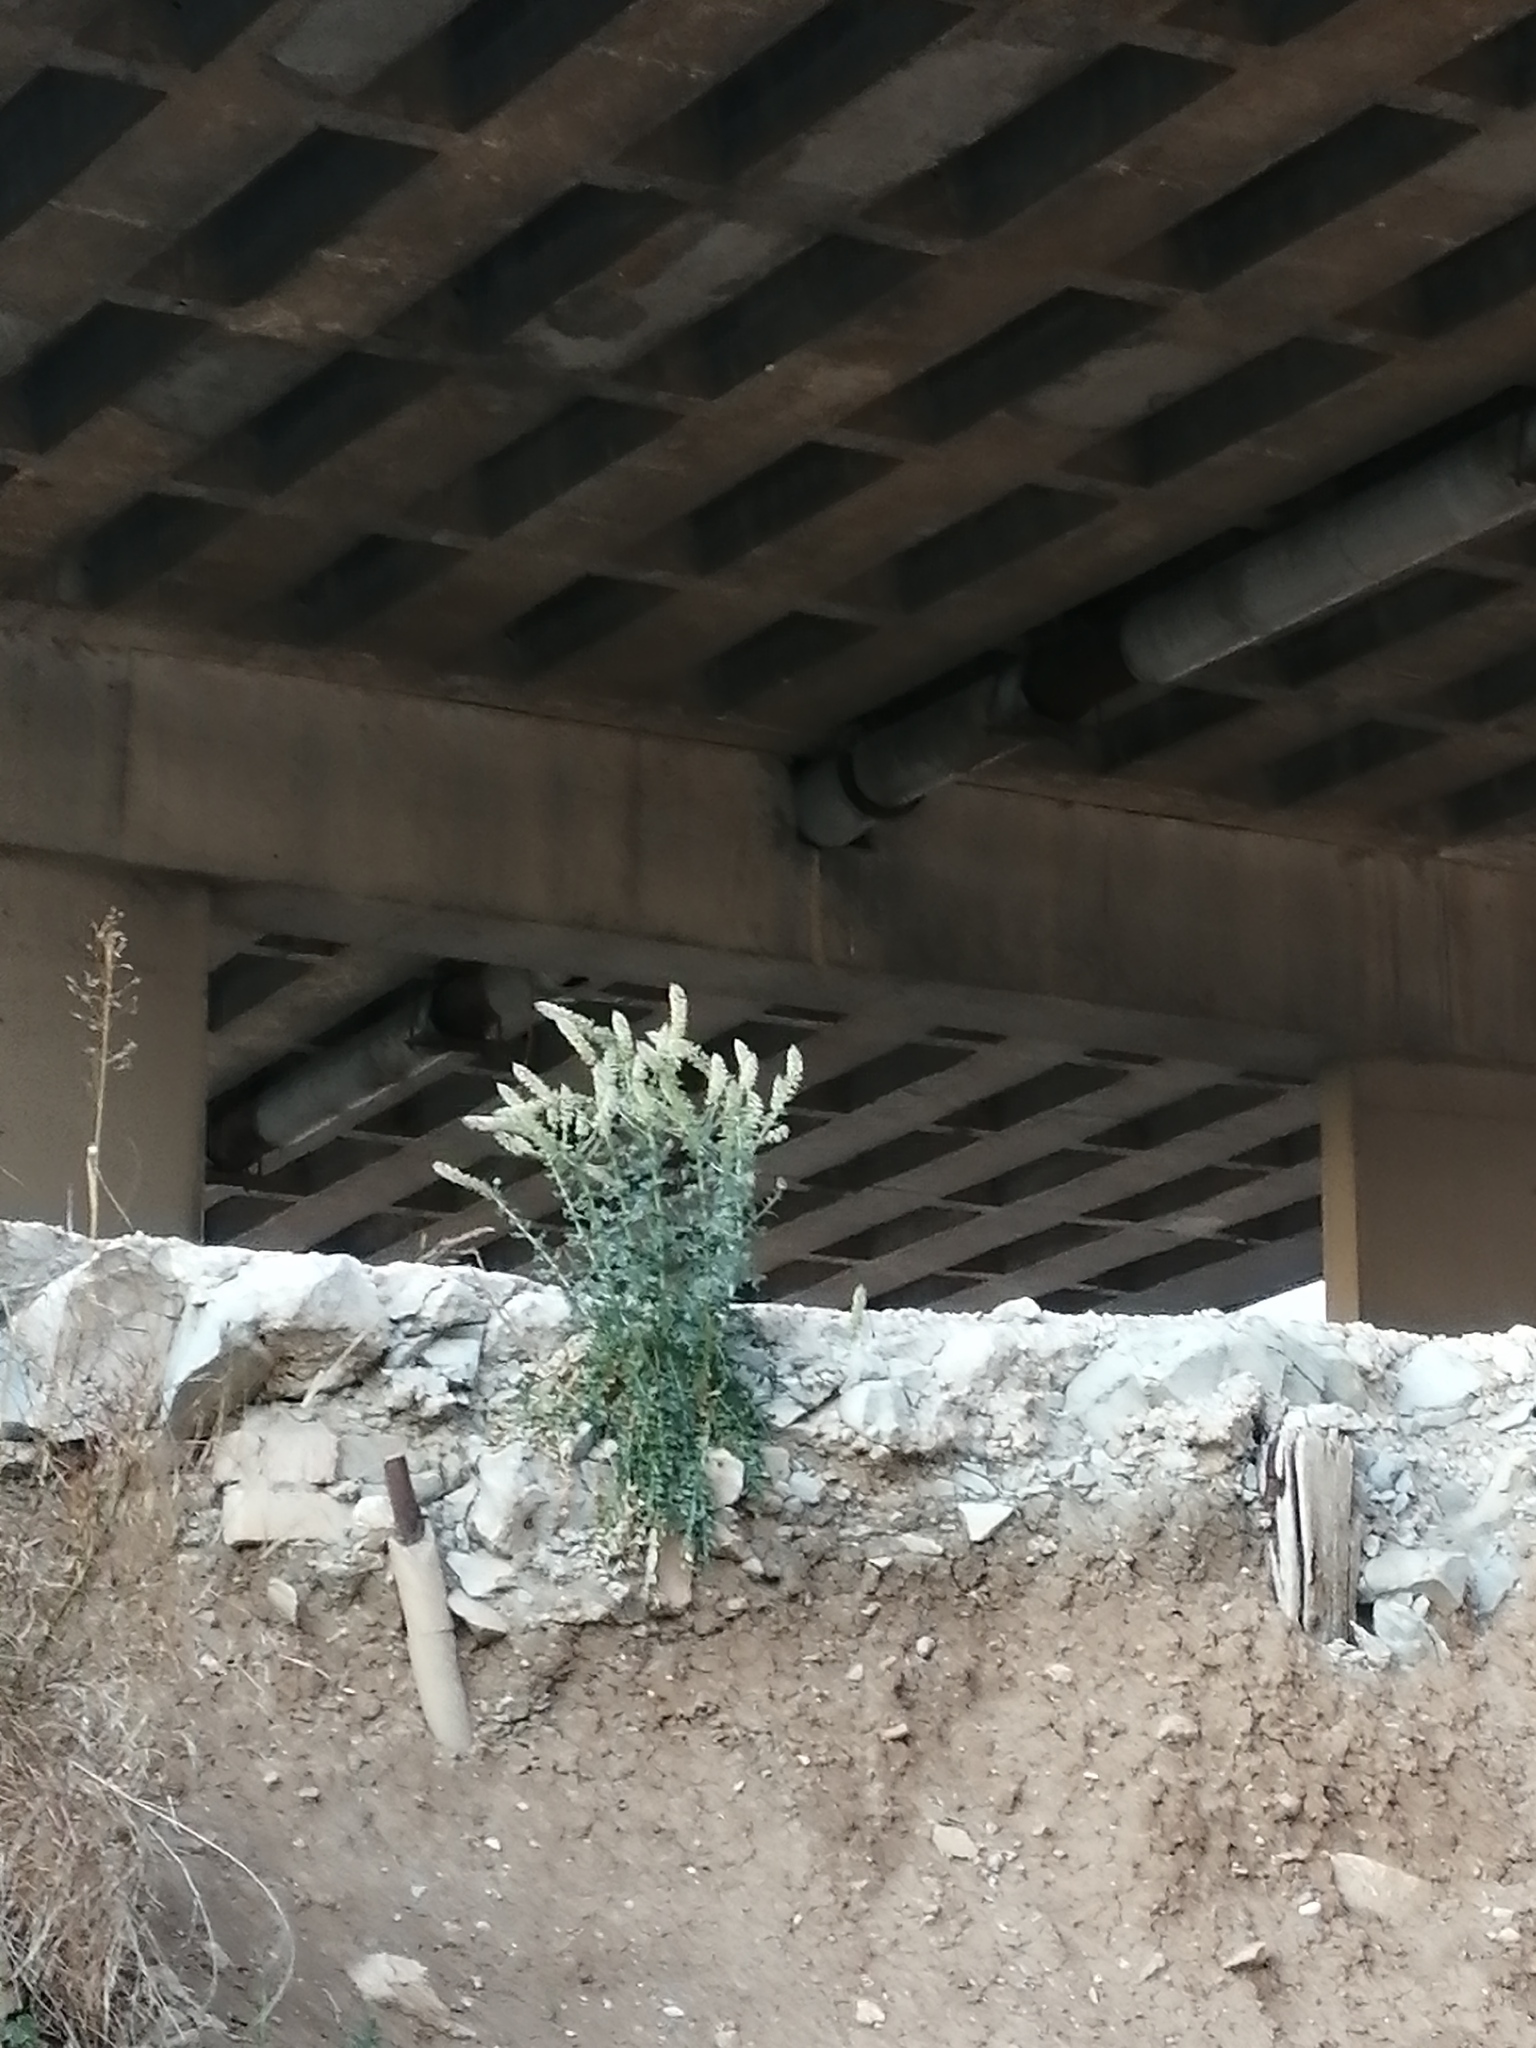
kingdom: Plantae
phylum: Tracheophyta
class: Magnoliopsida
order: Brassicales
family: Resedaceae
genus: Reseda
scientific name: Reseda alba
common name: White mignonette
